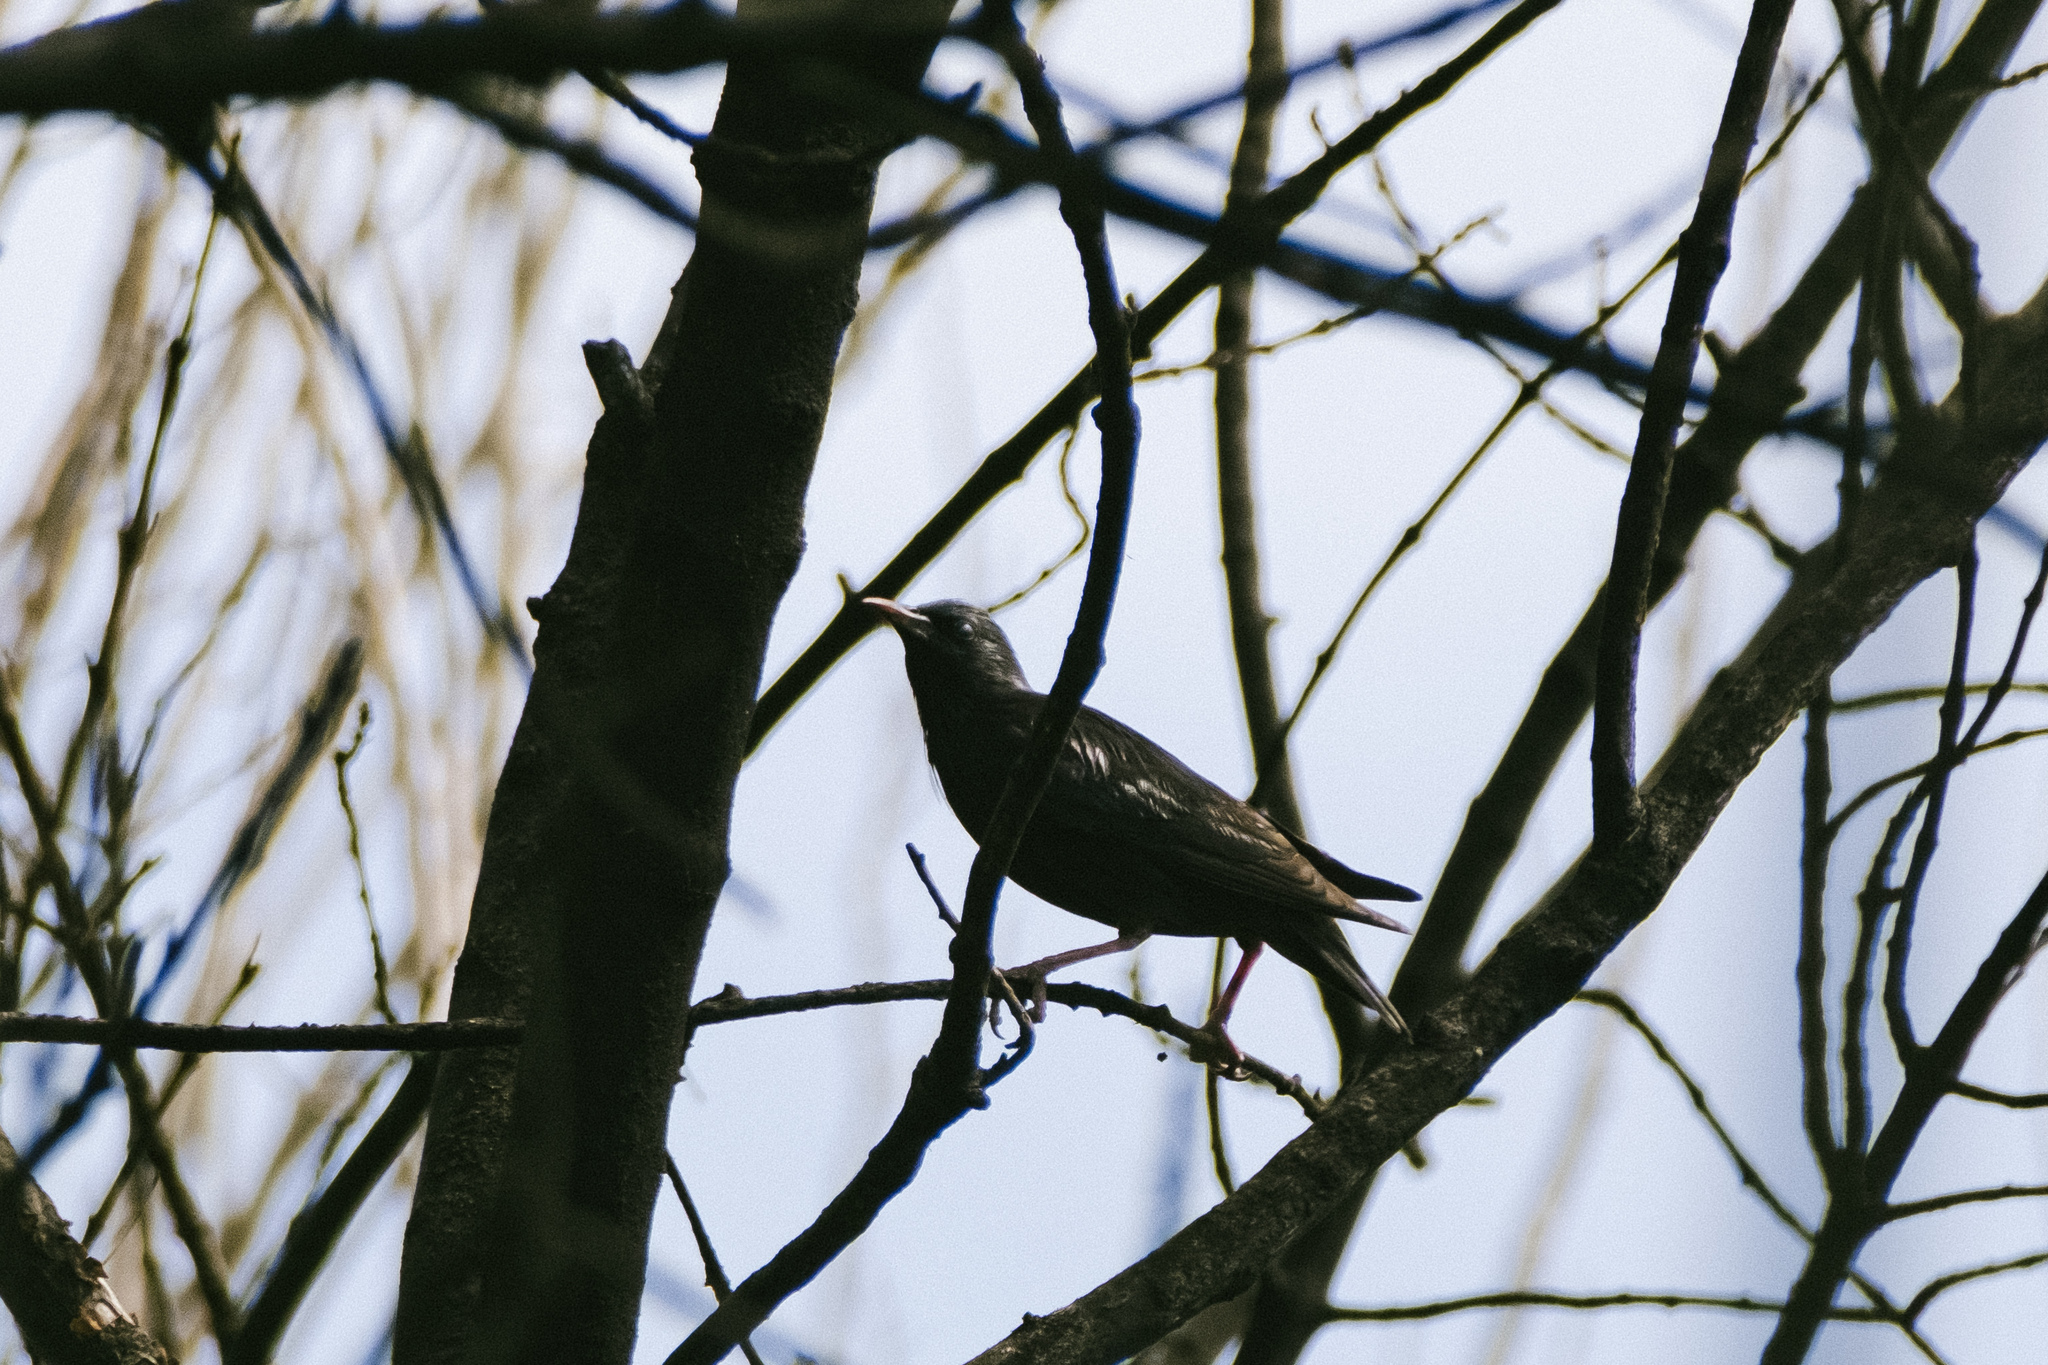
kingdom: Animalia
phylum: Chordata
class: Aves
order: Passeriformes
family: Sturnidae
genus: Sturnus
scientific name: Sturnus unicolor
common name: Spotless starling
